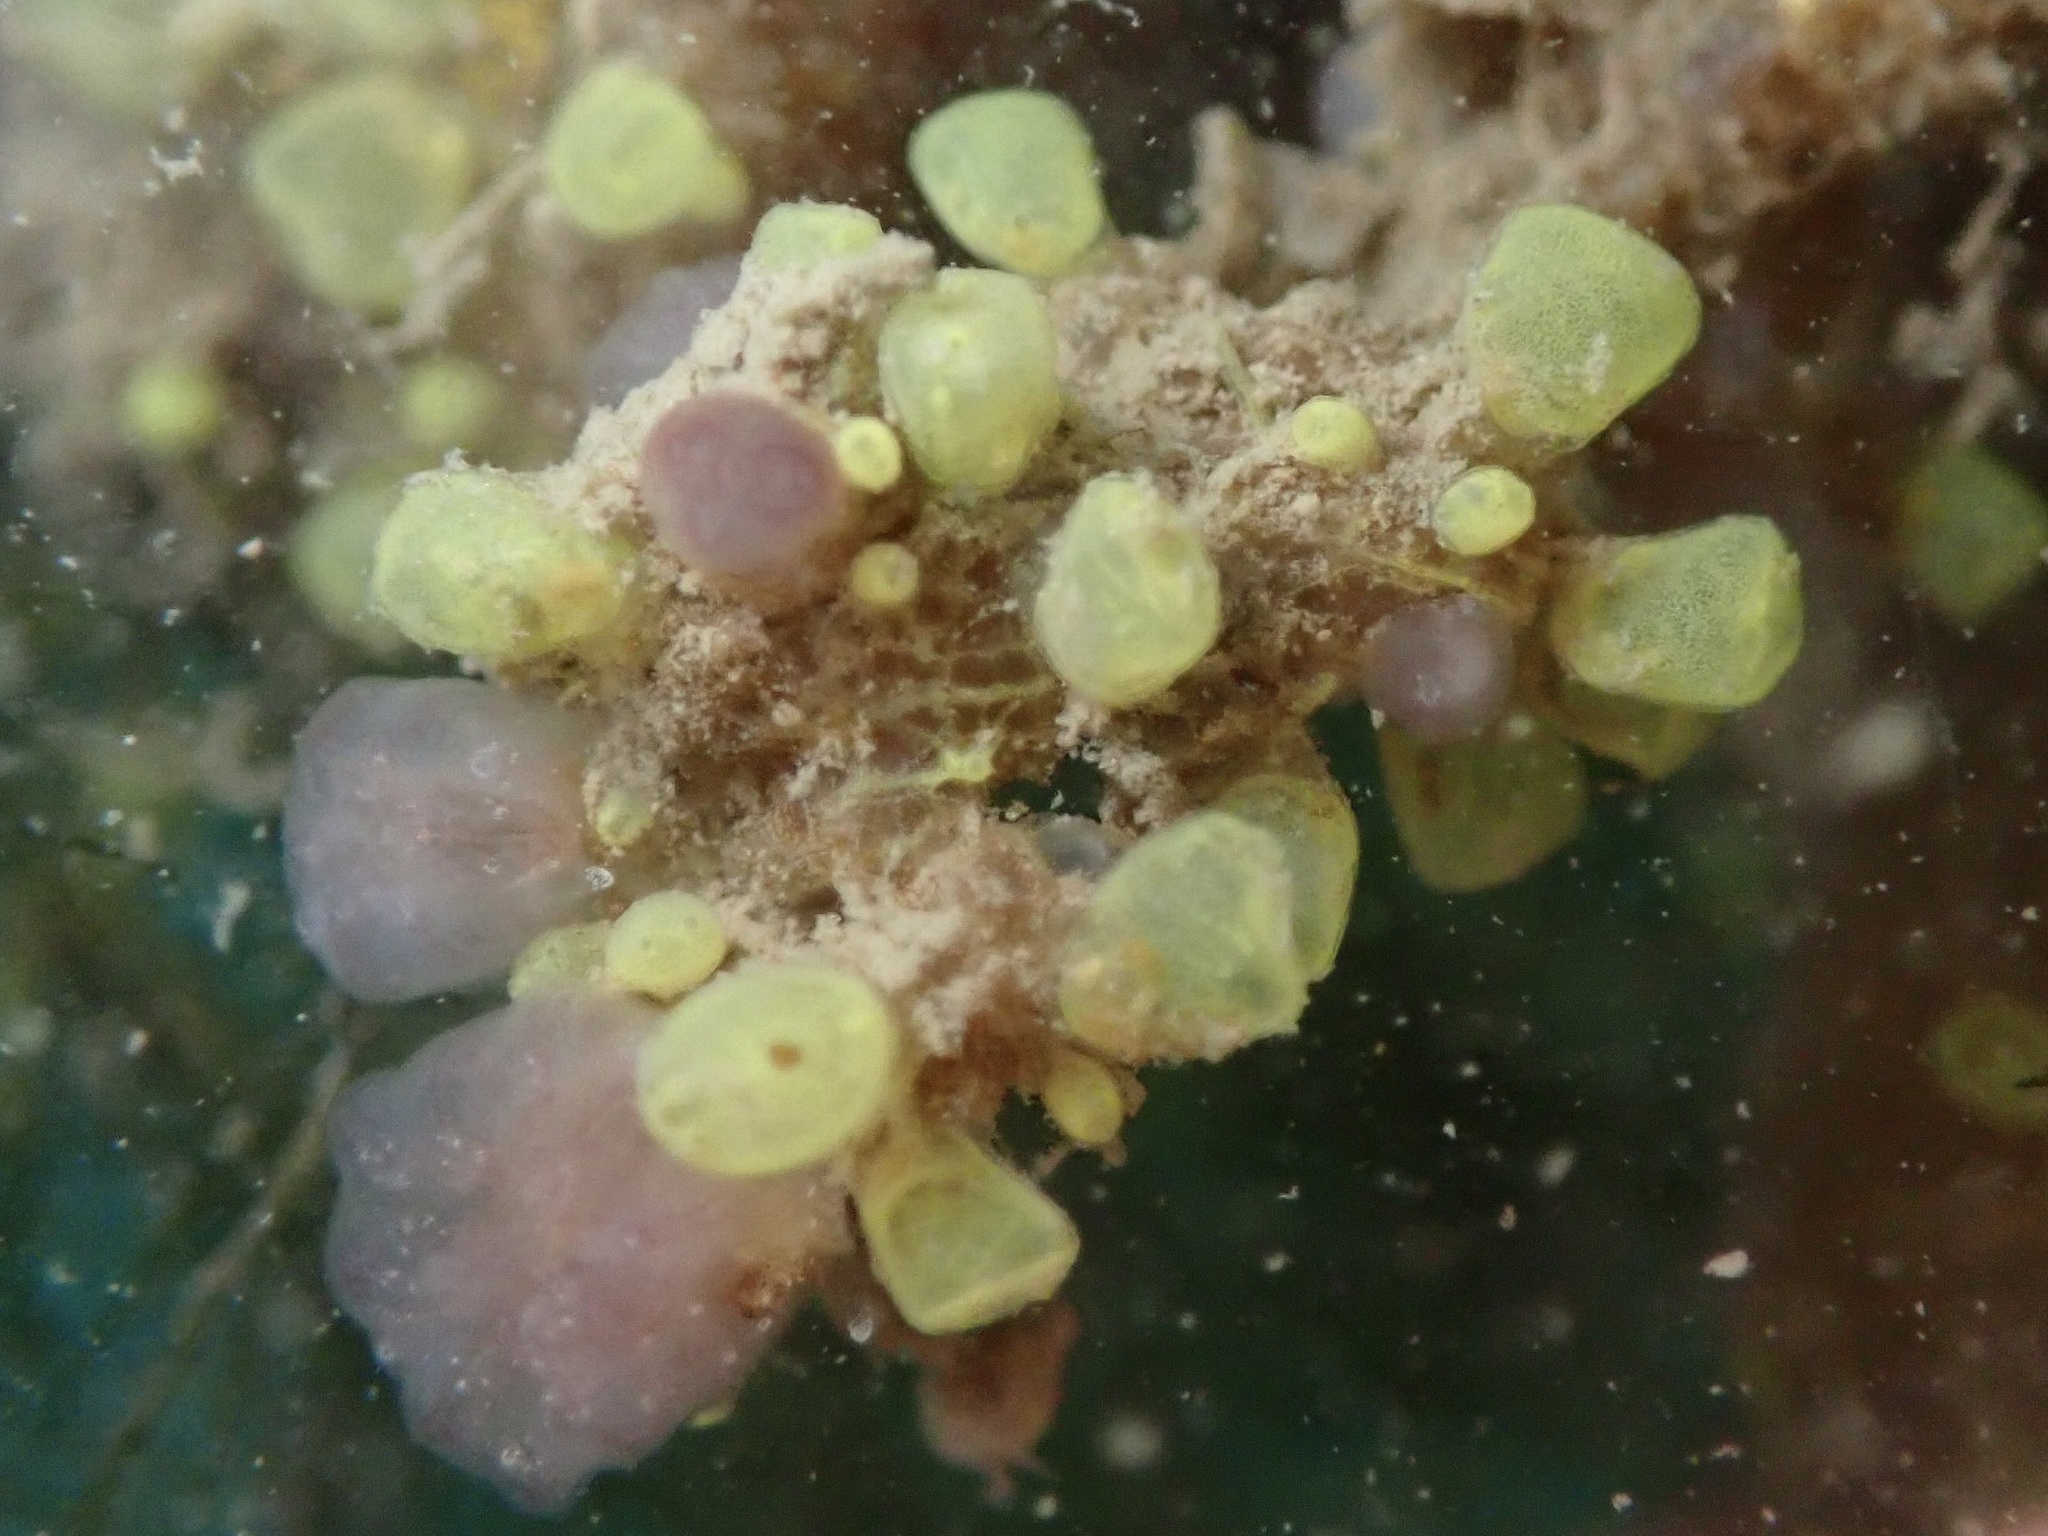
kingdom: Animalia
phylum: Chordata
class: Ascidiacea
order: Phlebobranchia
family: Perophoridae
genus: Perophora
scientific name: Perophora annectens
